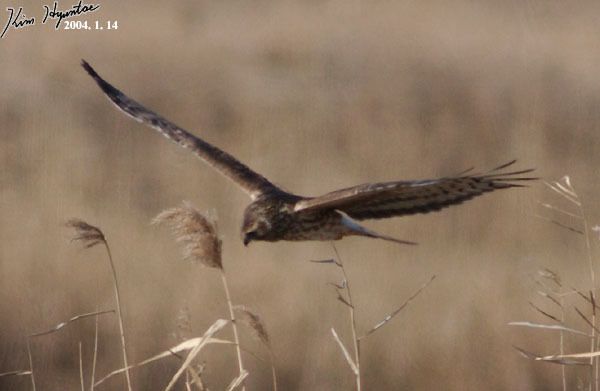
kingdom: Animalia
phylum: Chordata
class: Aves
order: Accipitriformes
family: Accipitridae
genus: Circus
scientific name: Circus cyaneus
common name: Hen harrier
